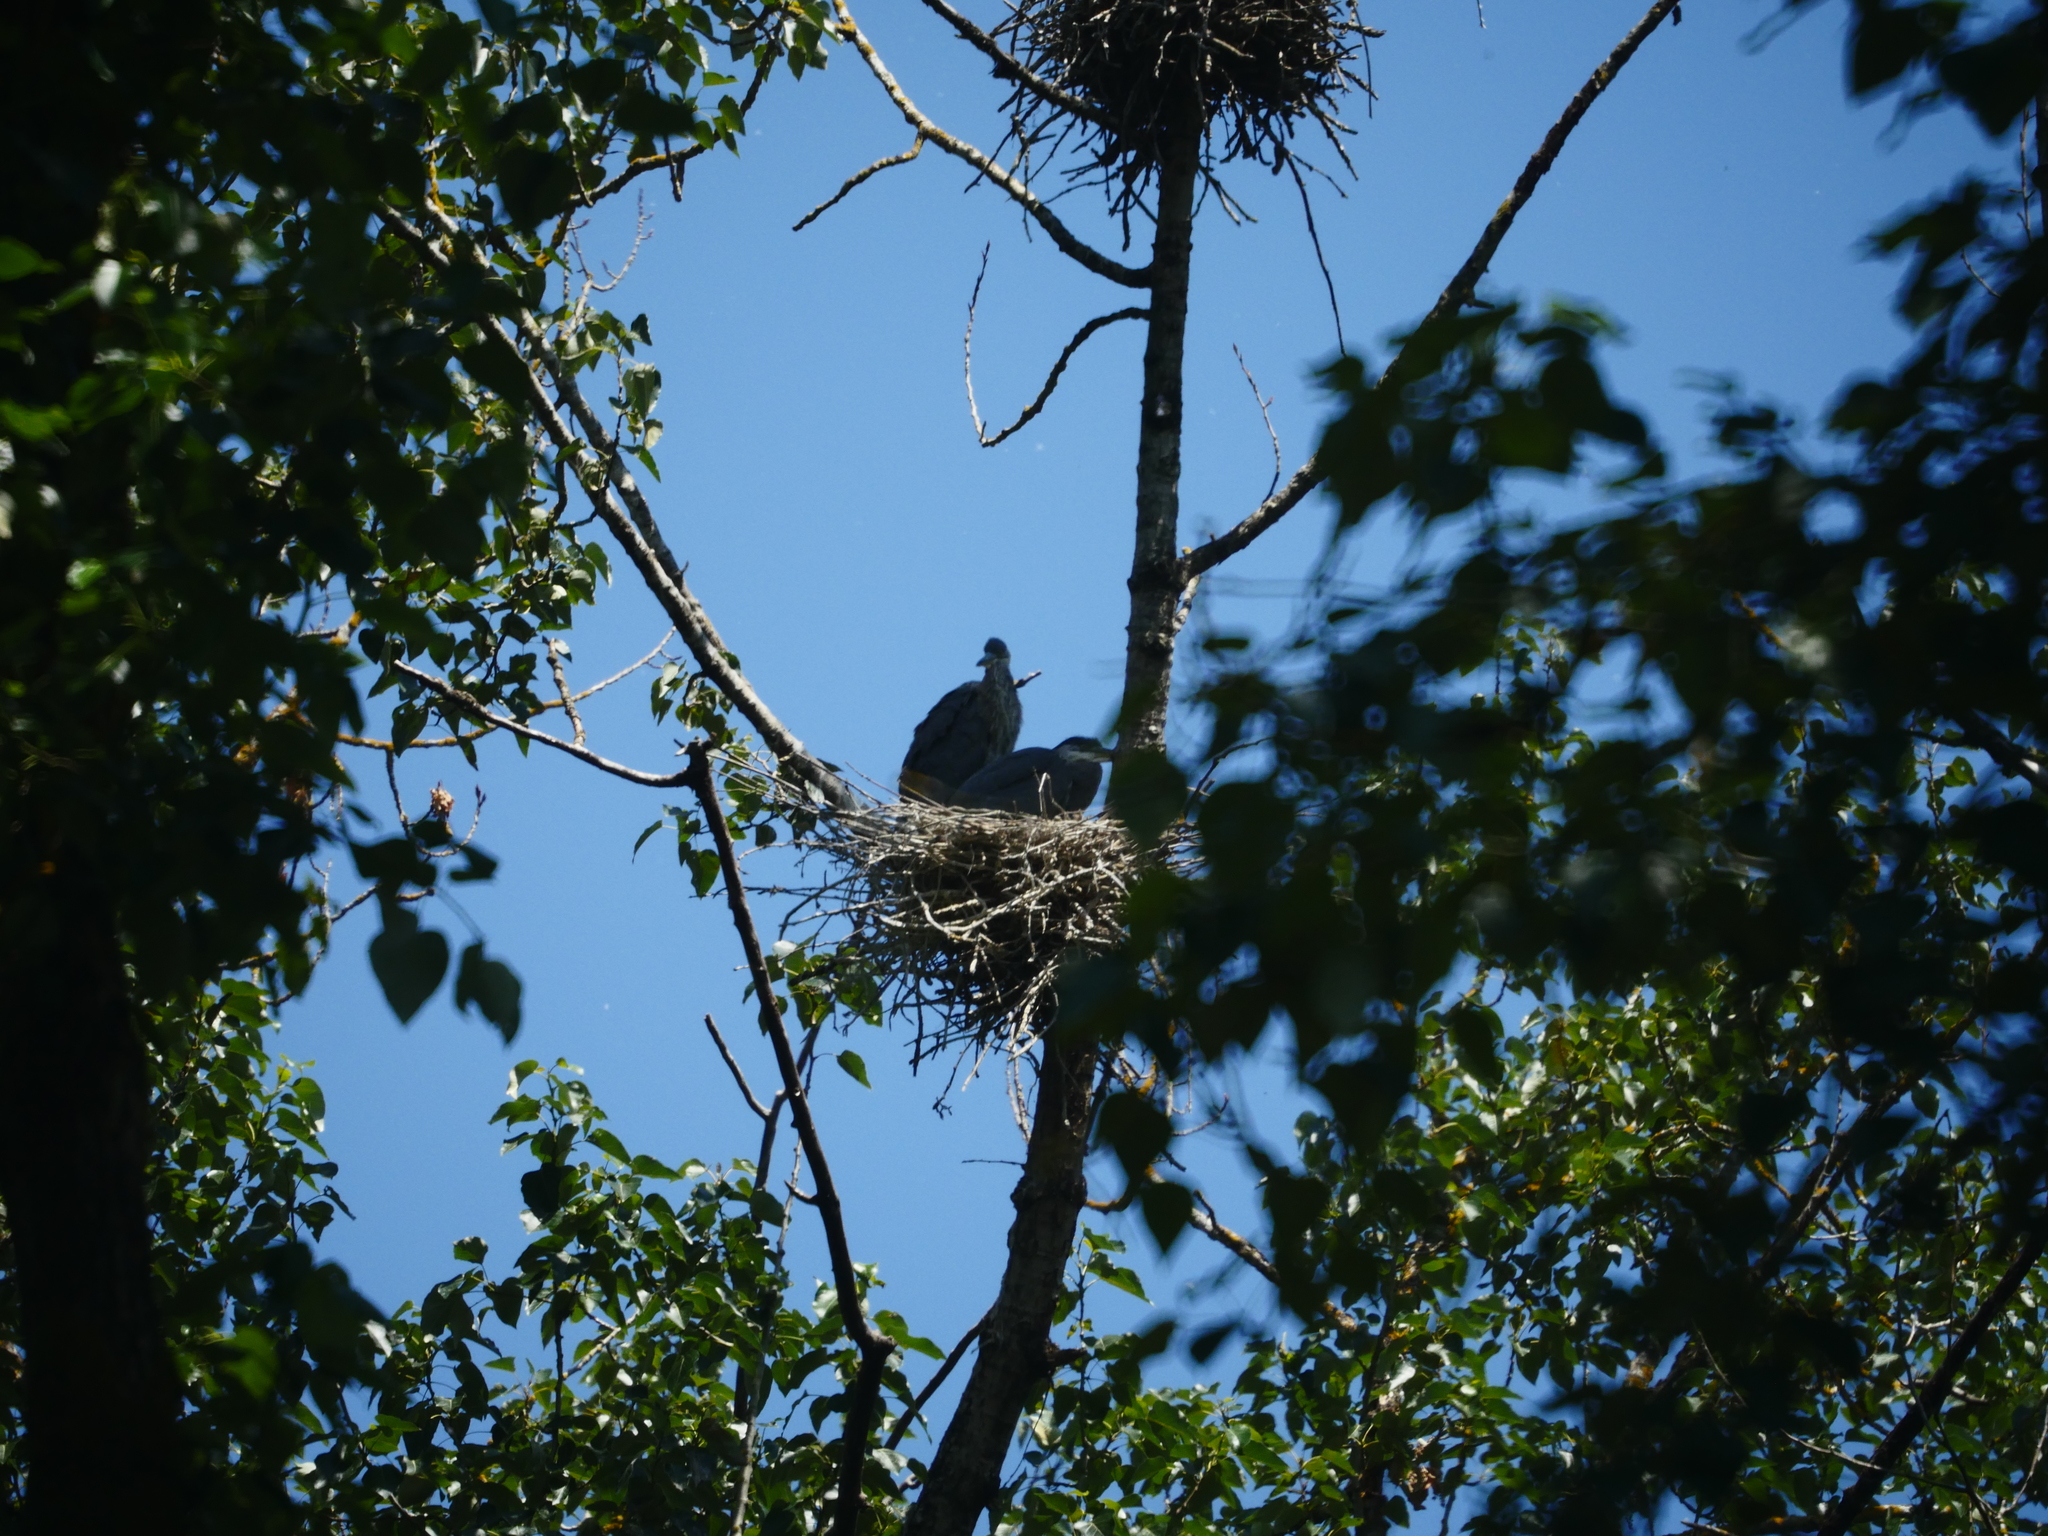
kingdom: Animalia
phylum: Chordata
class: Aves
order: Pelecaniformes
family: Ardeidae
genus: Ardea
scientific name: Ardea herodias
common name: Great blue heron
